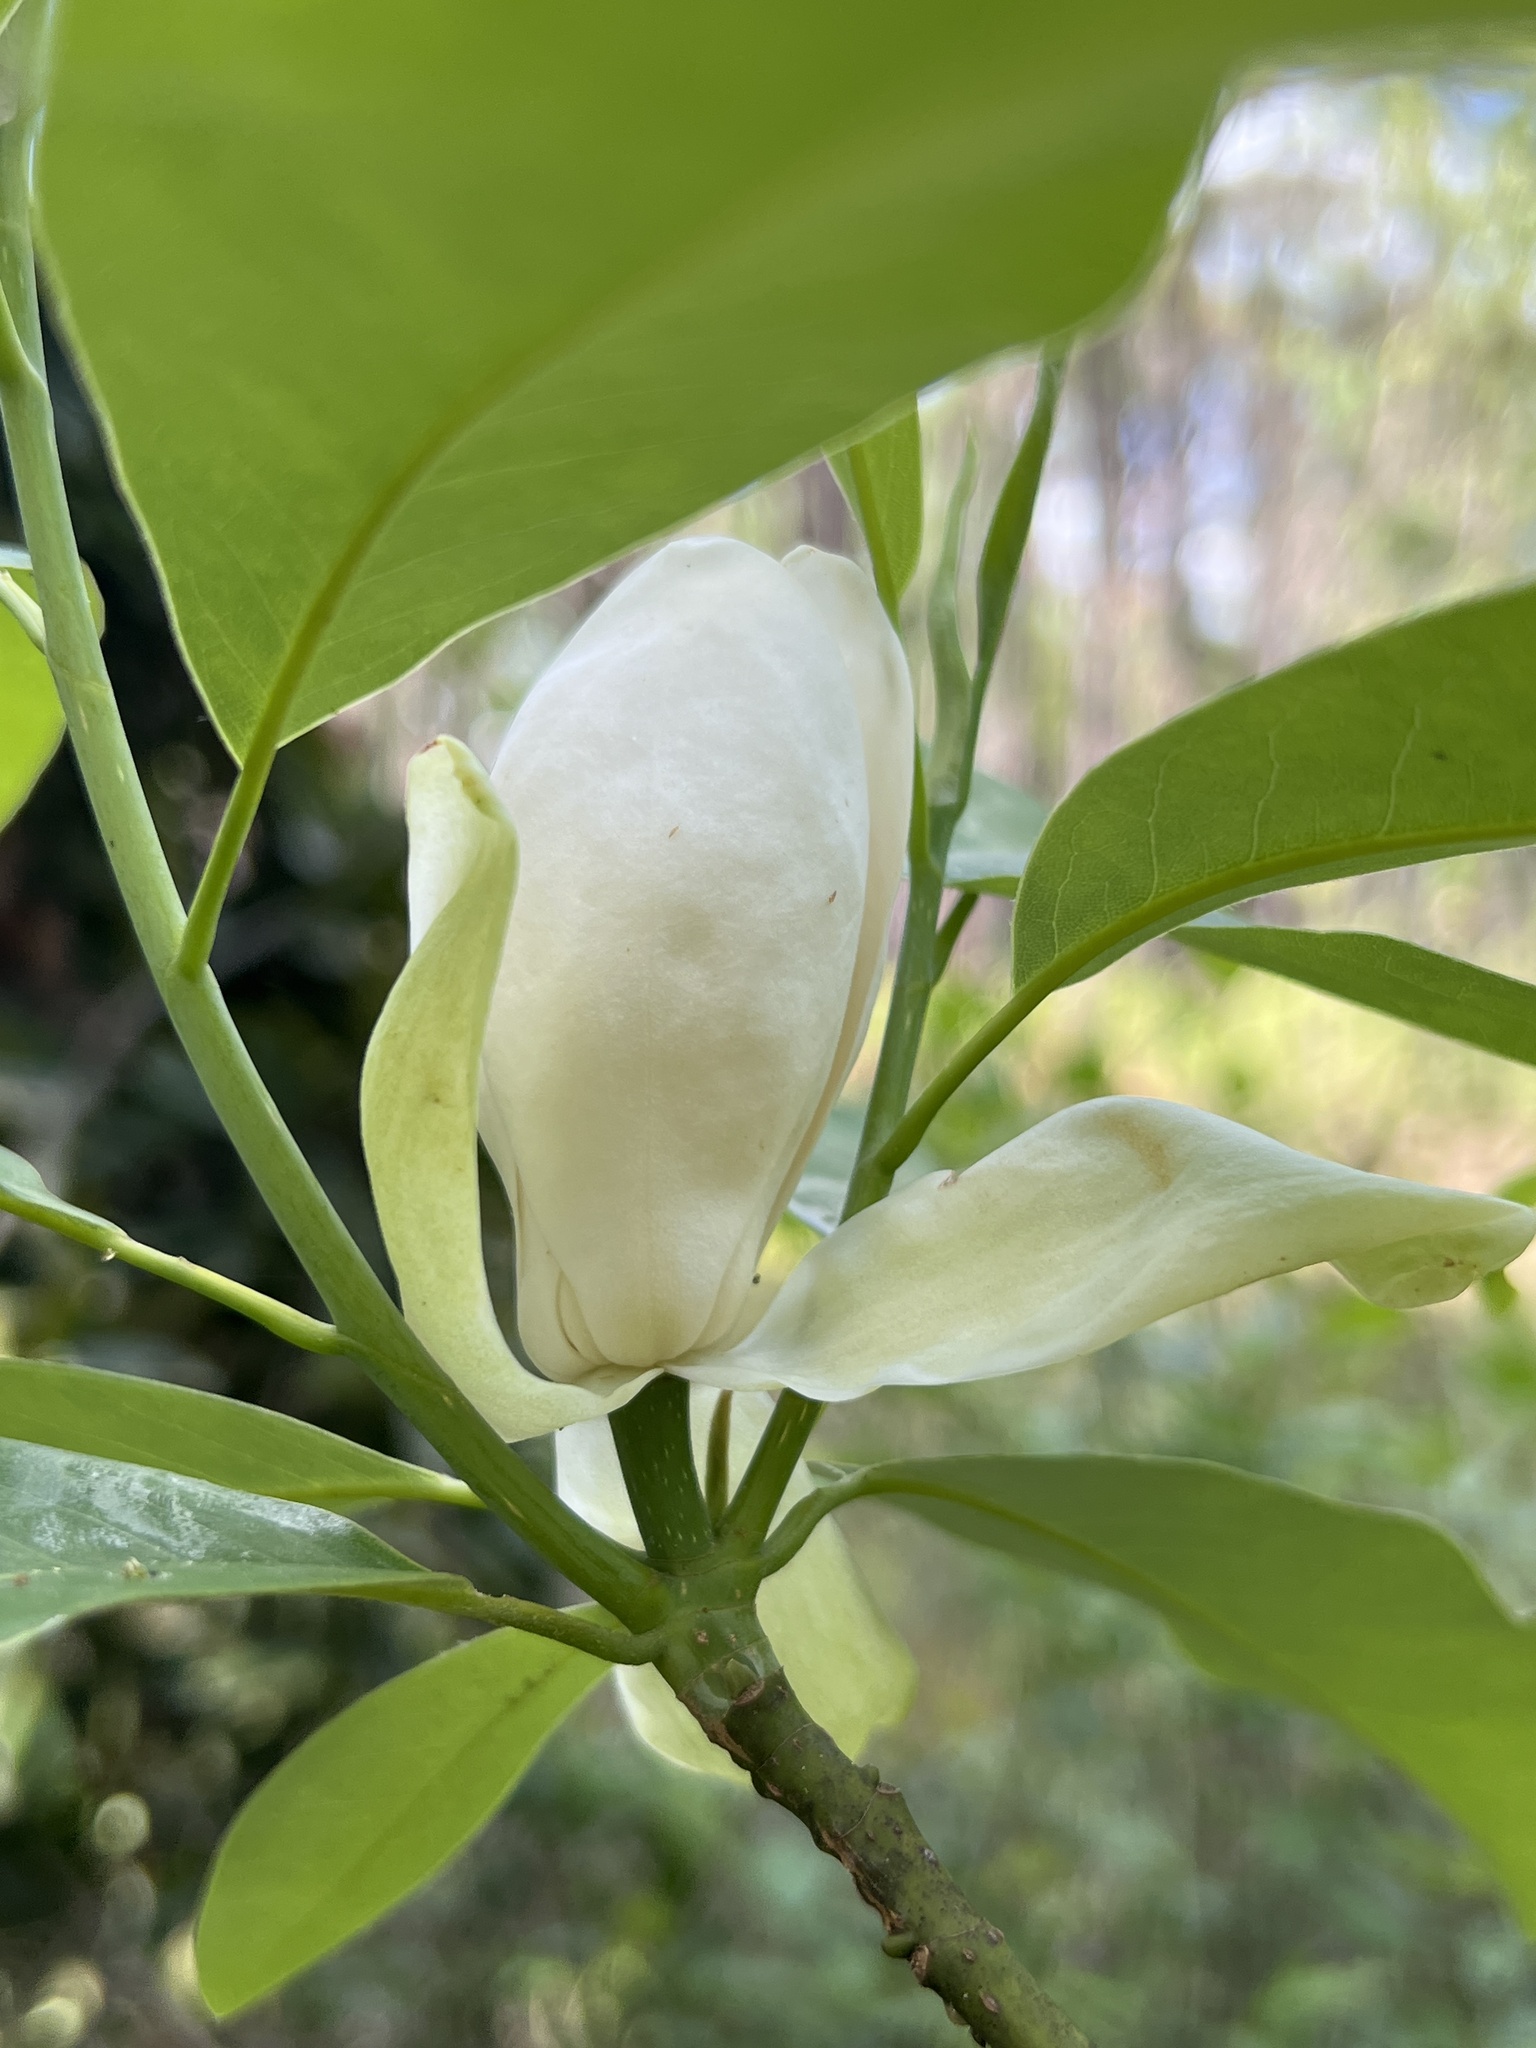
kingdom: Plantae
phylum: Tracheophyta
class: Magnoliopsida
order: Magnoliales
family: Magnoliaceae
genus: Magnolia
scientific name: Magnolia virginiana
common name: Swamp bay
